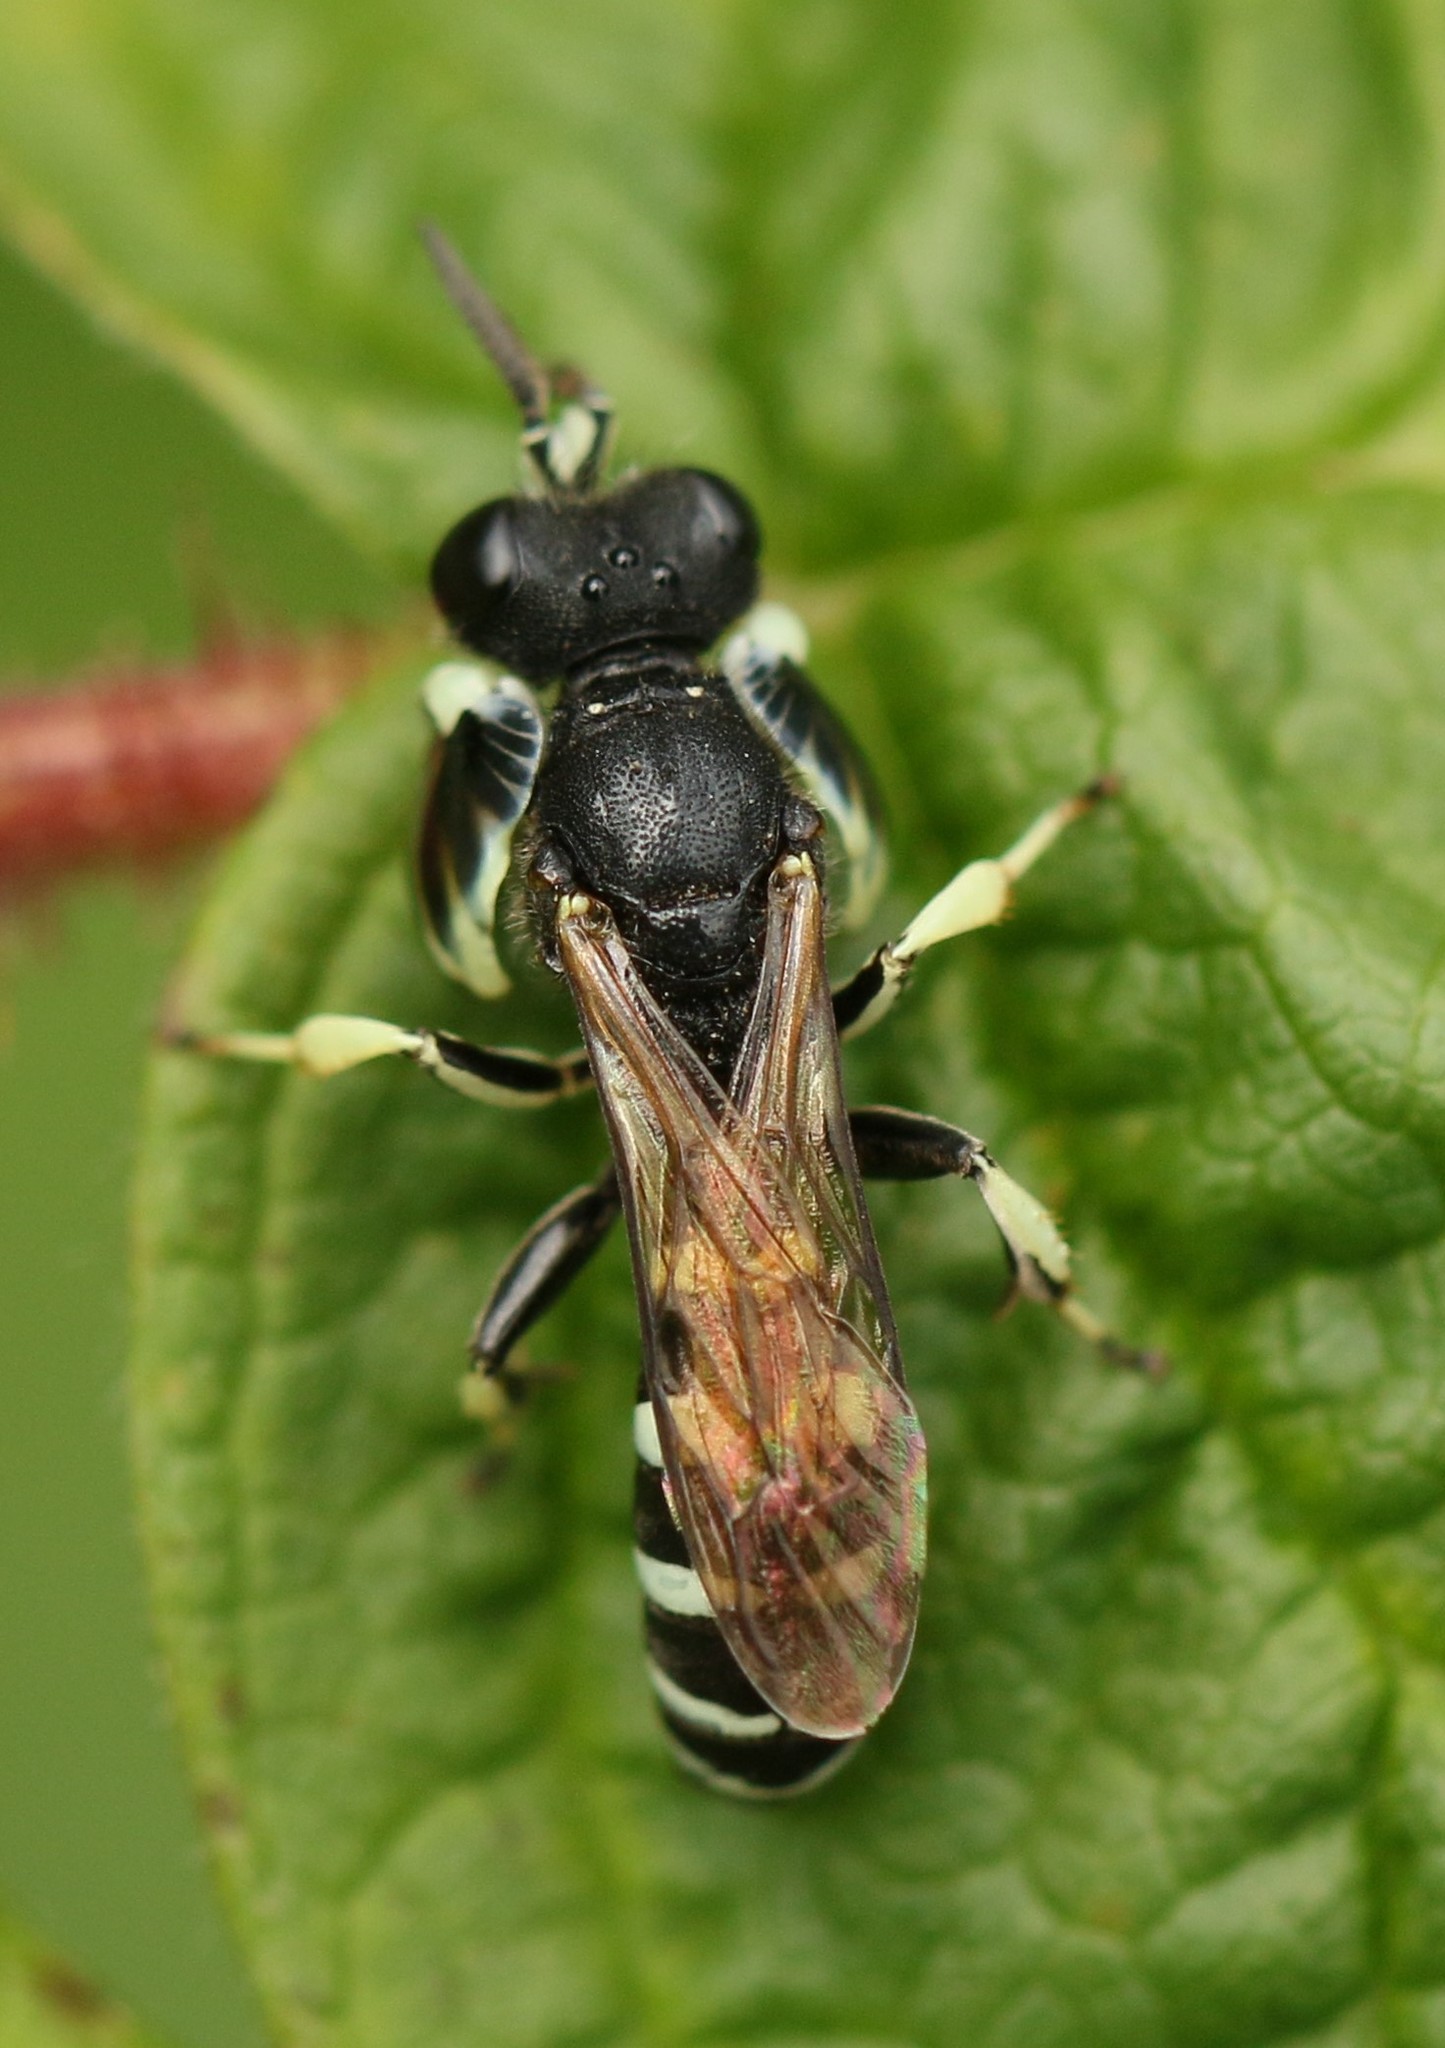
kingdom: Animalia
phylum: Arthropoda
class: Insecta
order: Hymenoptera
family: Crabronidae
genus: Crabro
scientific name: Crabro latipes
